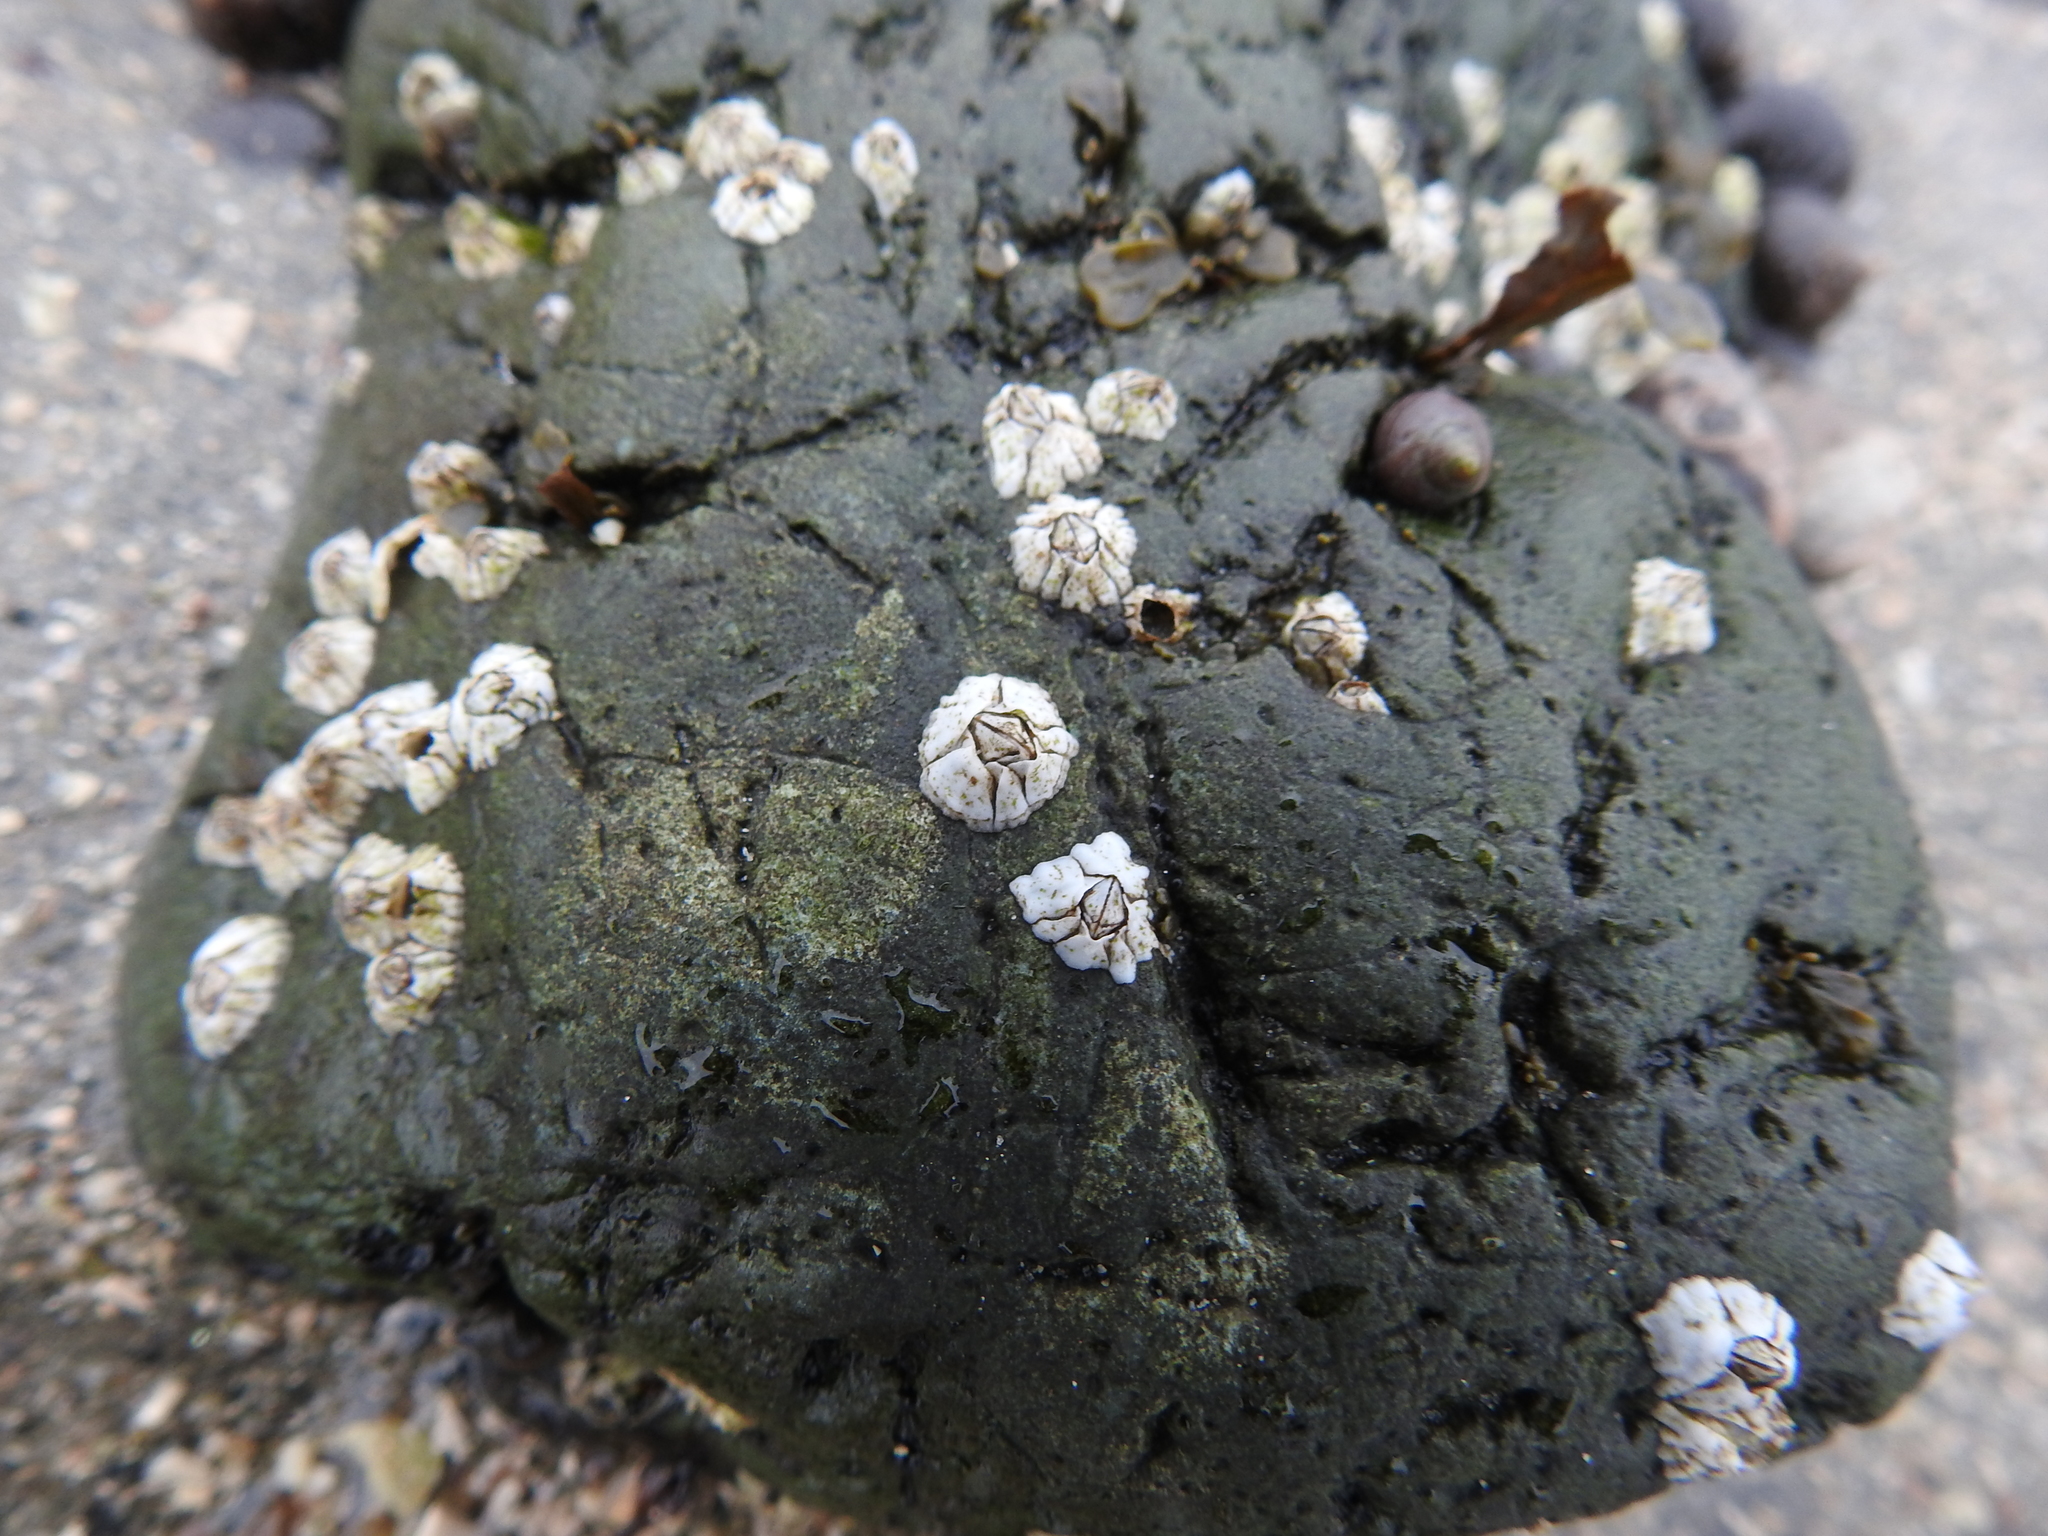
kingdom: Animalia
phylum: Arthropoda
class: Maxillopoda
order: Sessilia
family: Archaeobalanidae
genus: Semibalanus
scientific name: Semibalanus balanoides
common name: Acorn barnacle
